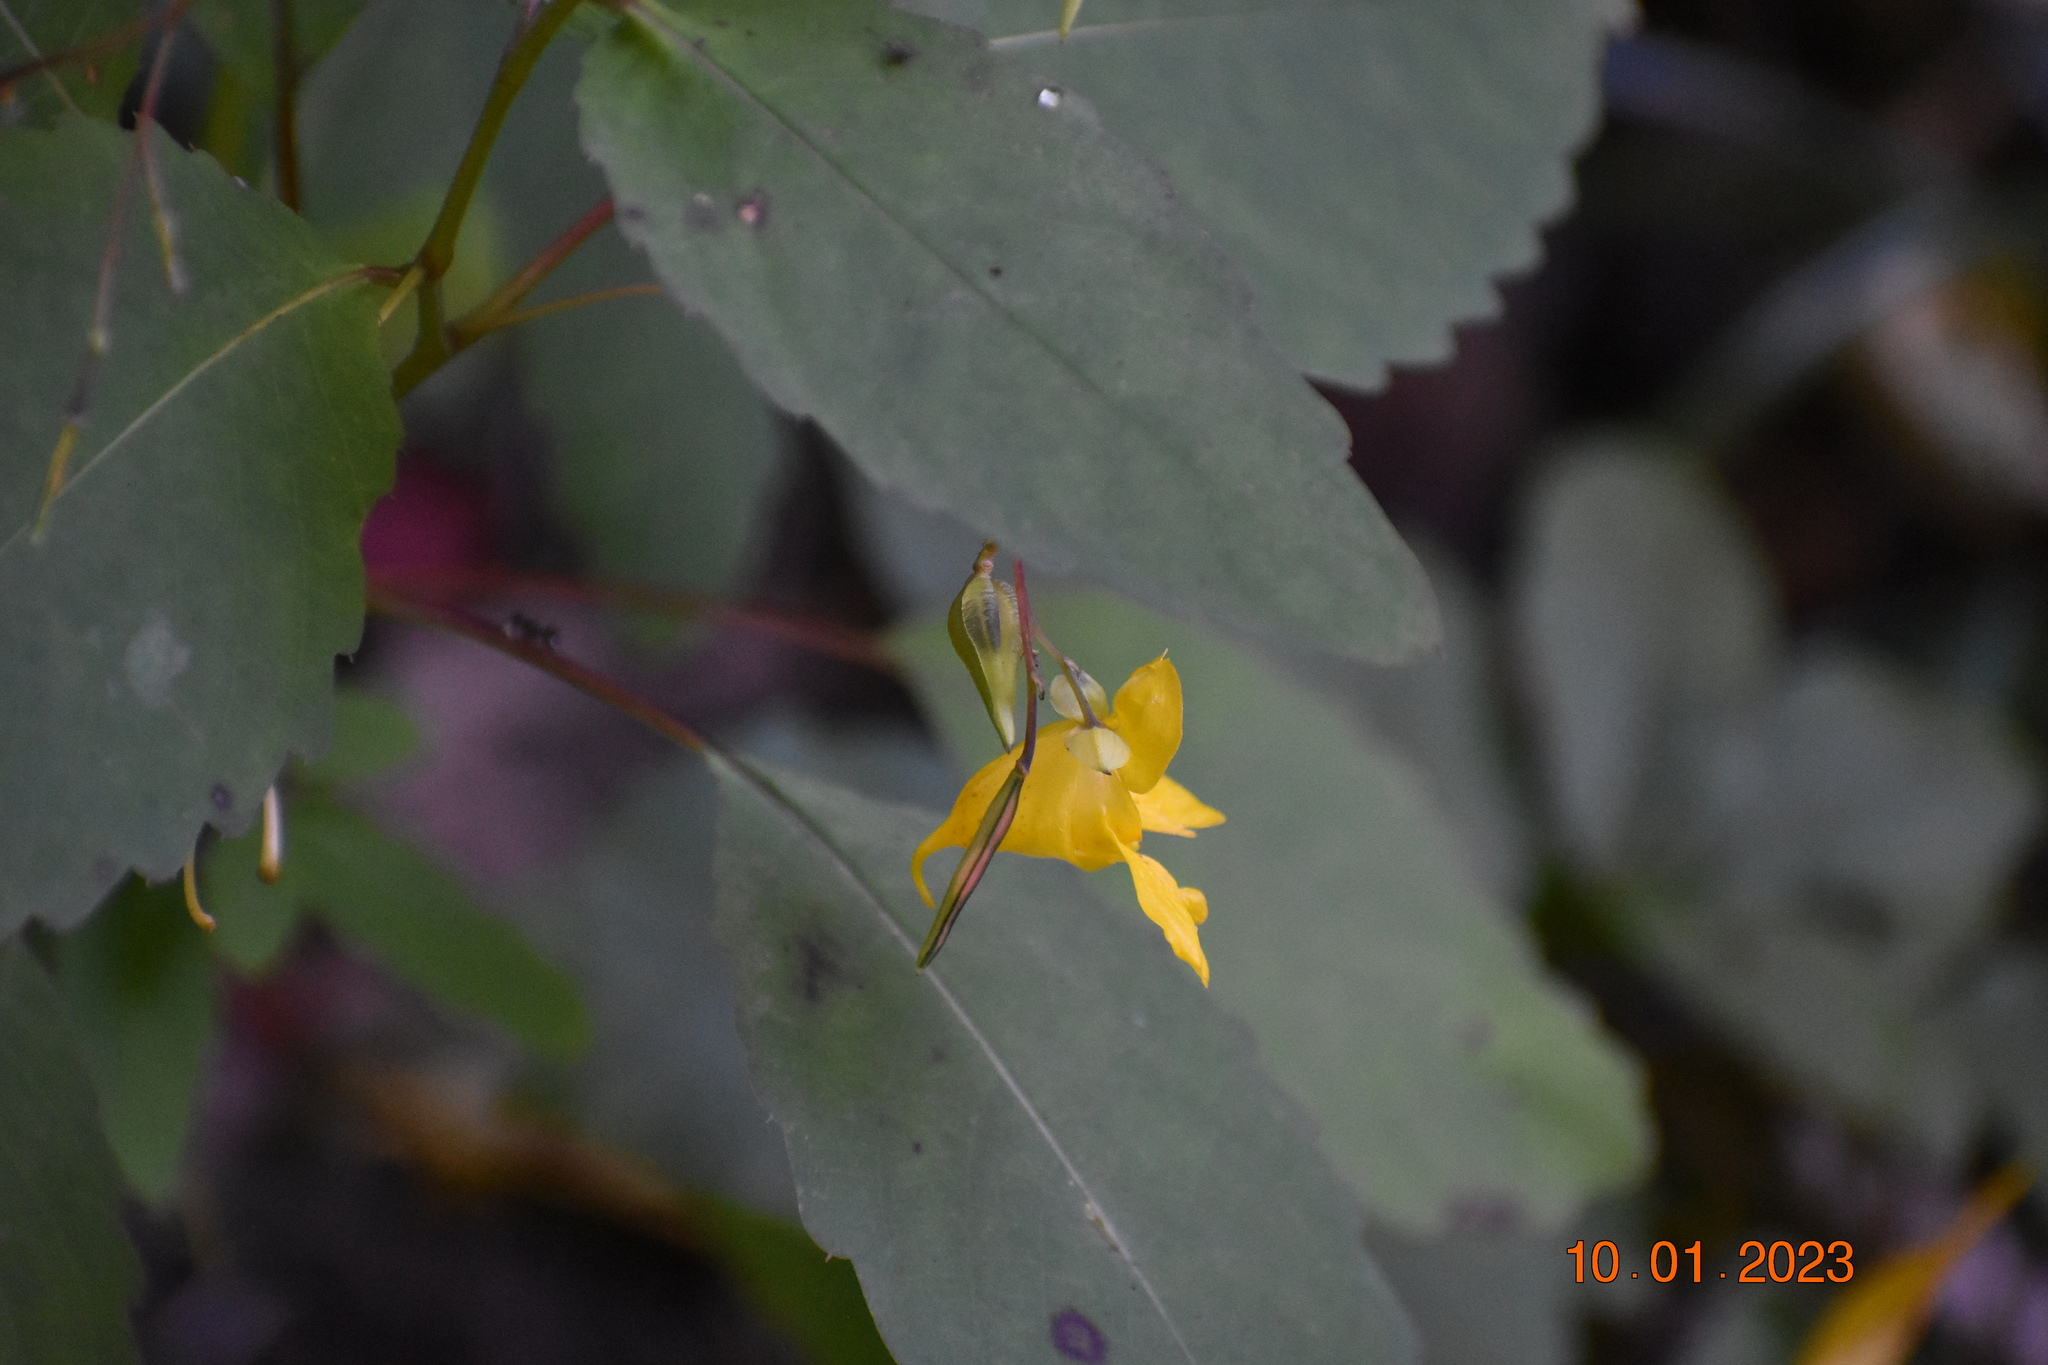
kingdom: Plantae
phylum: Tracheophyta
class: Magnoliopsida
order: Ericales
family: Balsaminaceae
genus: Impatiens
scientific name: Impatiens pallida
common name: Pale snapweed
